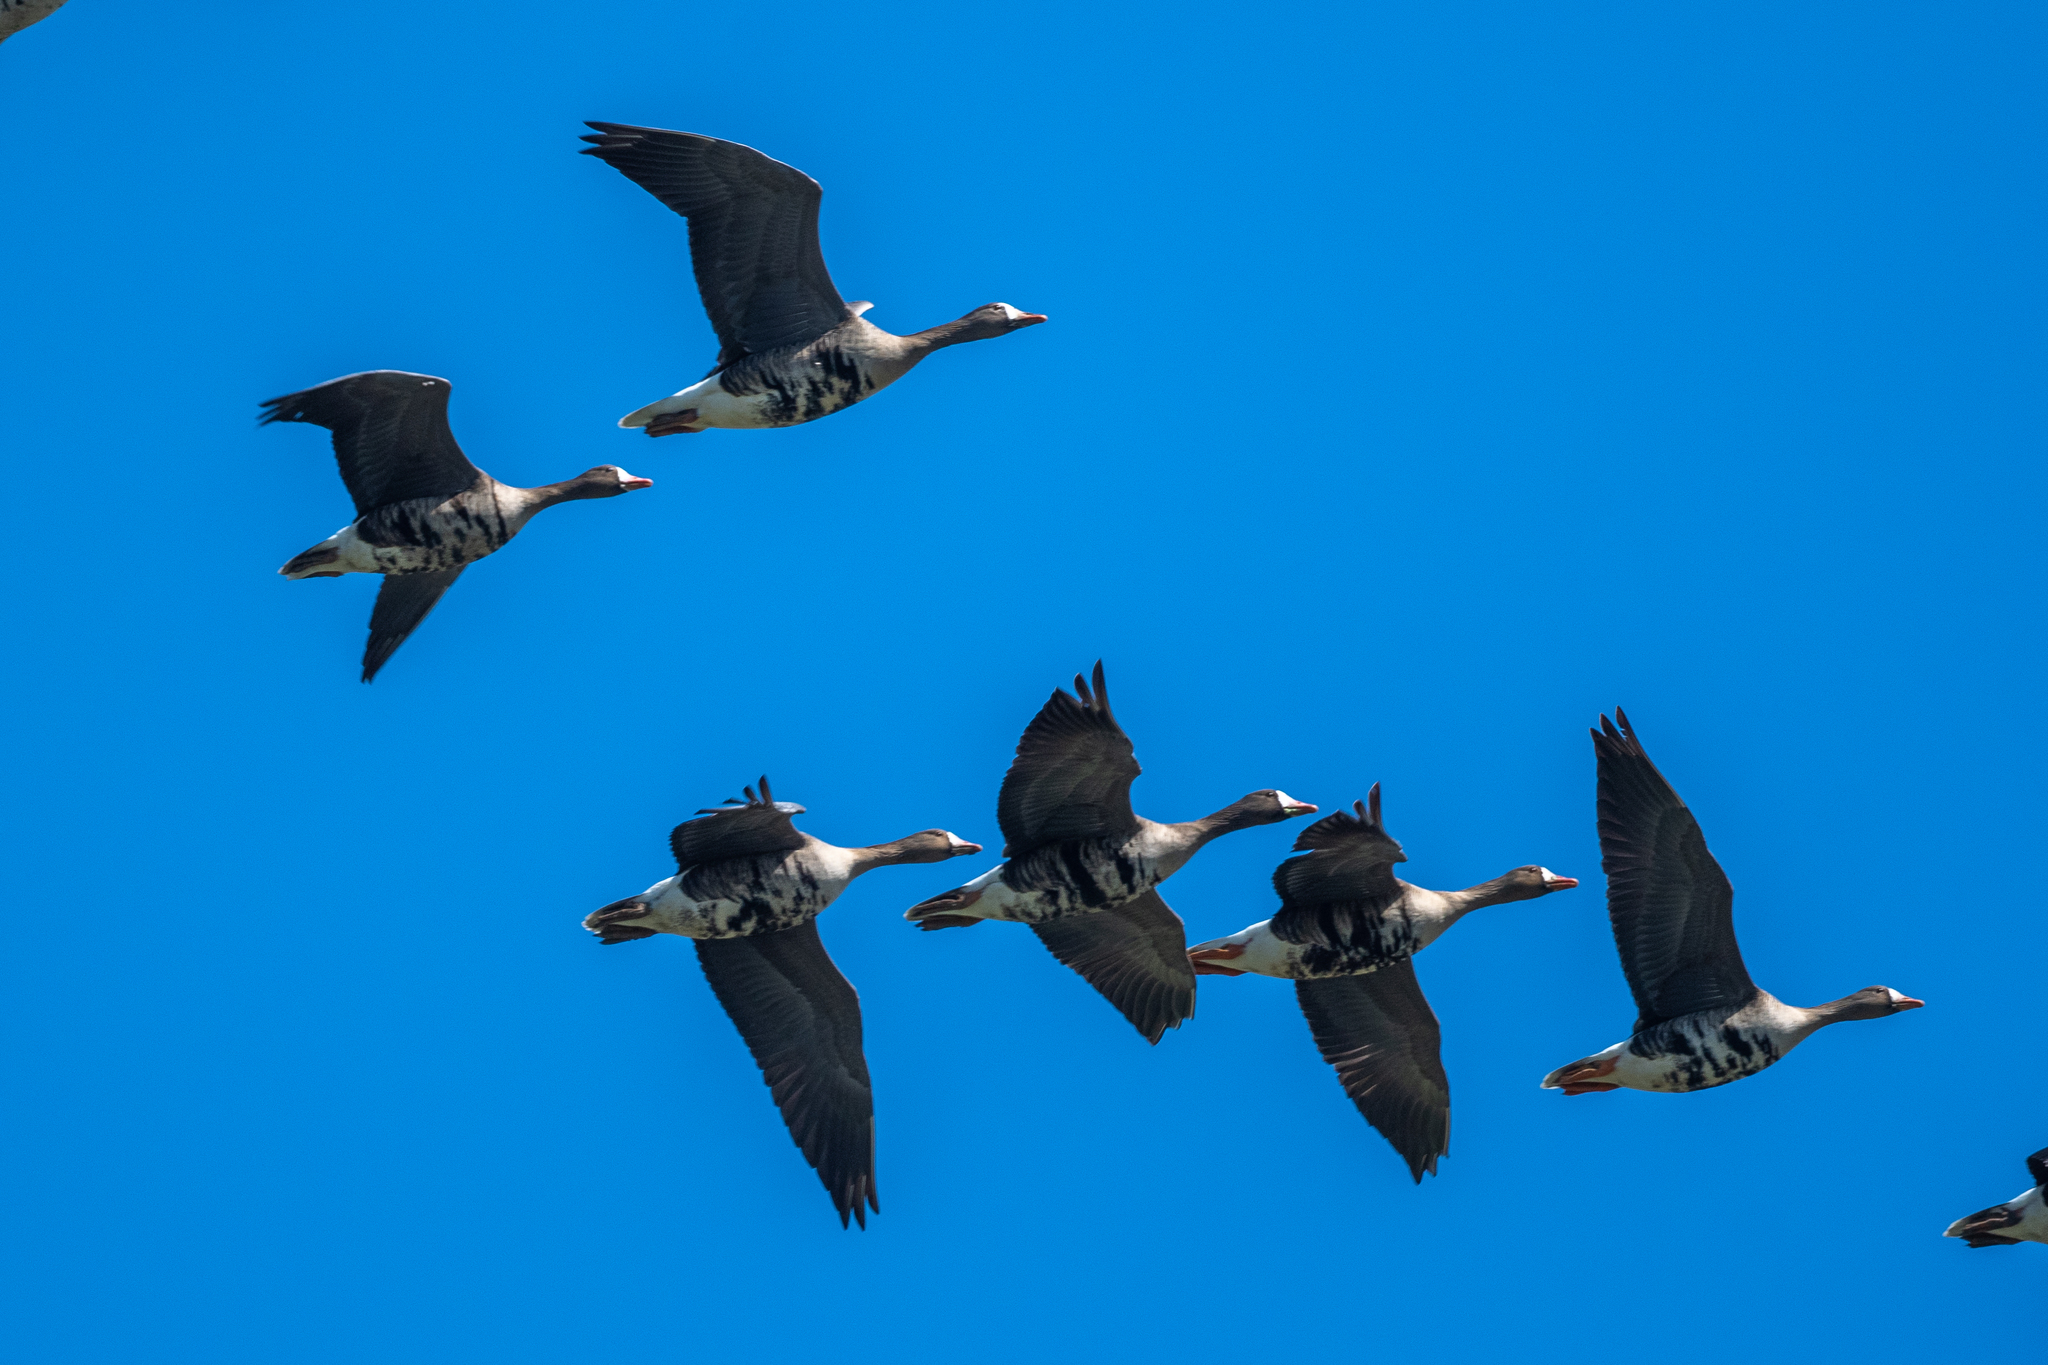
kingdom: Animalia
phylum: Chordata
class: Aves
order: Anseriformes
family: Anatidae
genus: Anser
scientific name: Anser albifrons
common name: Greater white-fronted goose
